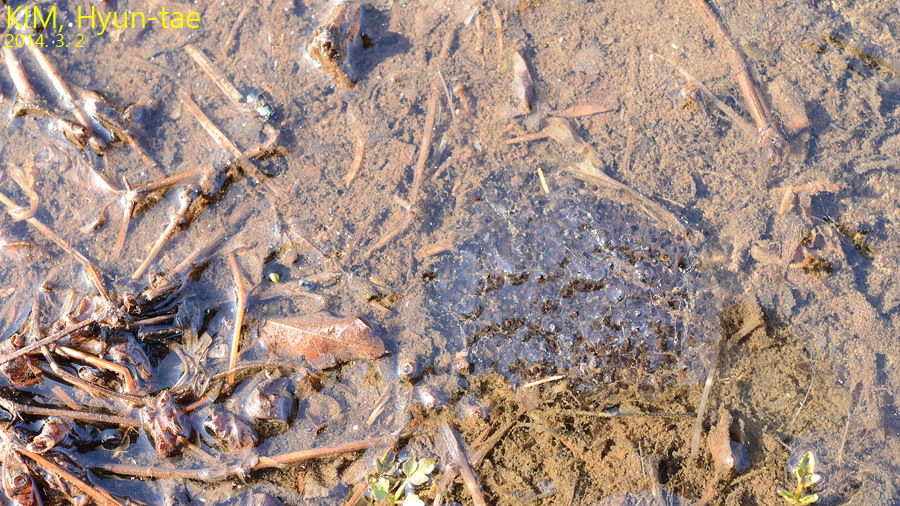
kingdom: Animalia
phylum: Chordata
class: Amphibia
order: Anura
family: Ranidae
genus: Rana
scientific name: Rana uenoi
